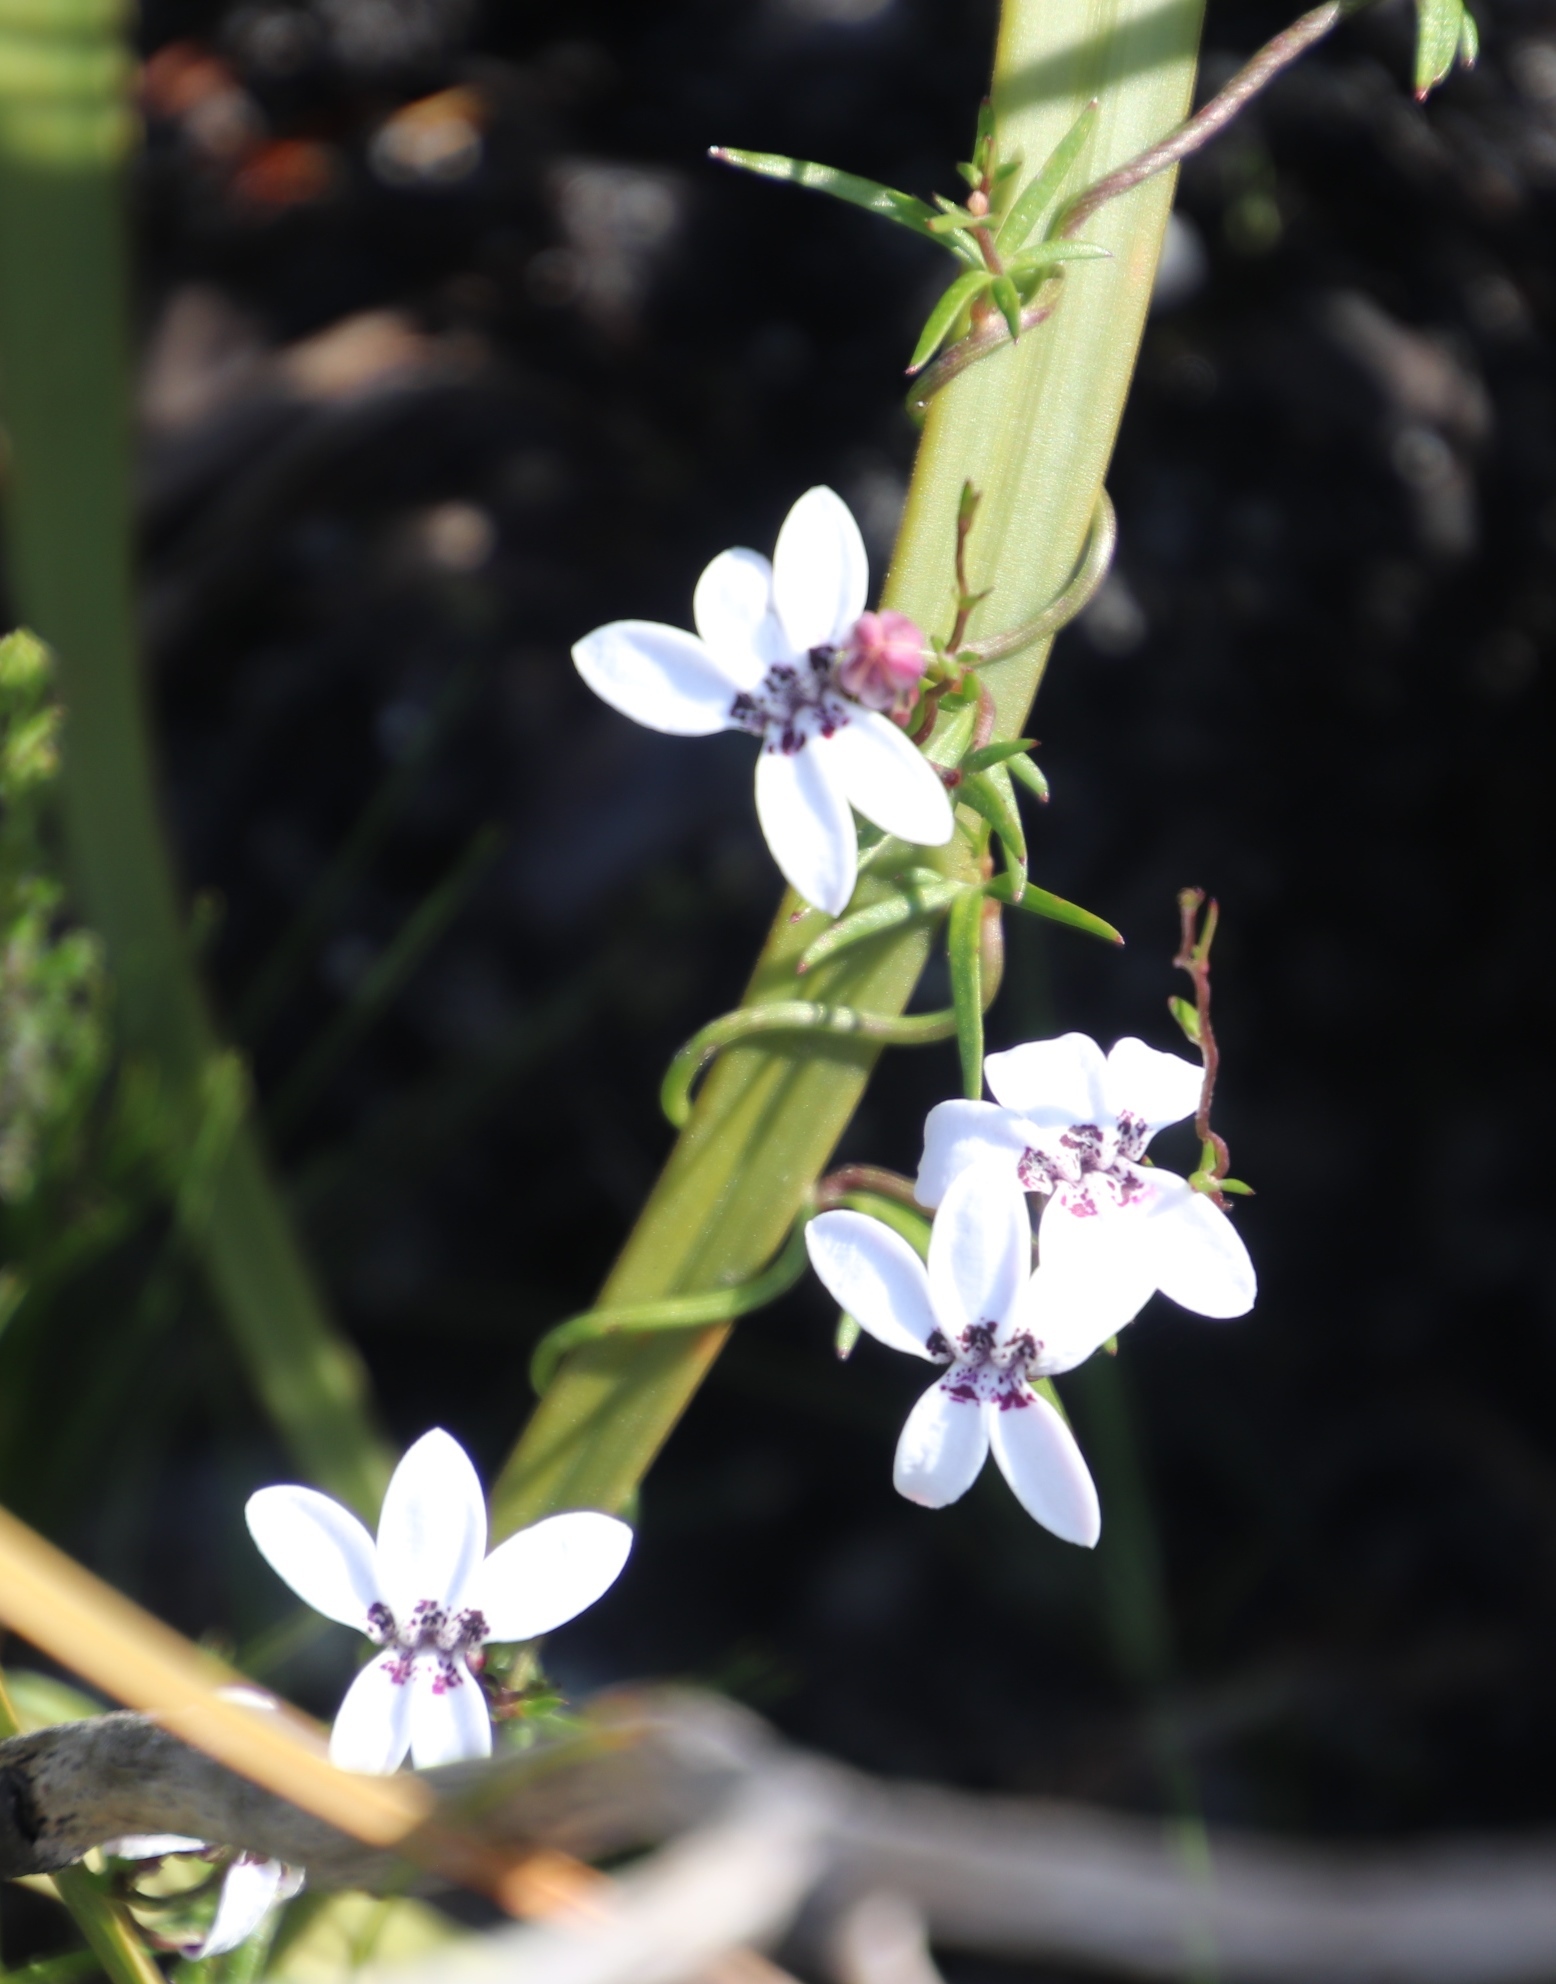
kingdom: Plantae
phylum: Tracheophyta
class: Magnoliopsida
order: Asterales
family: Campanulaceae
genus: Cyphia
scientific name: Cyphia volubilis
